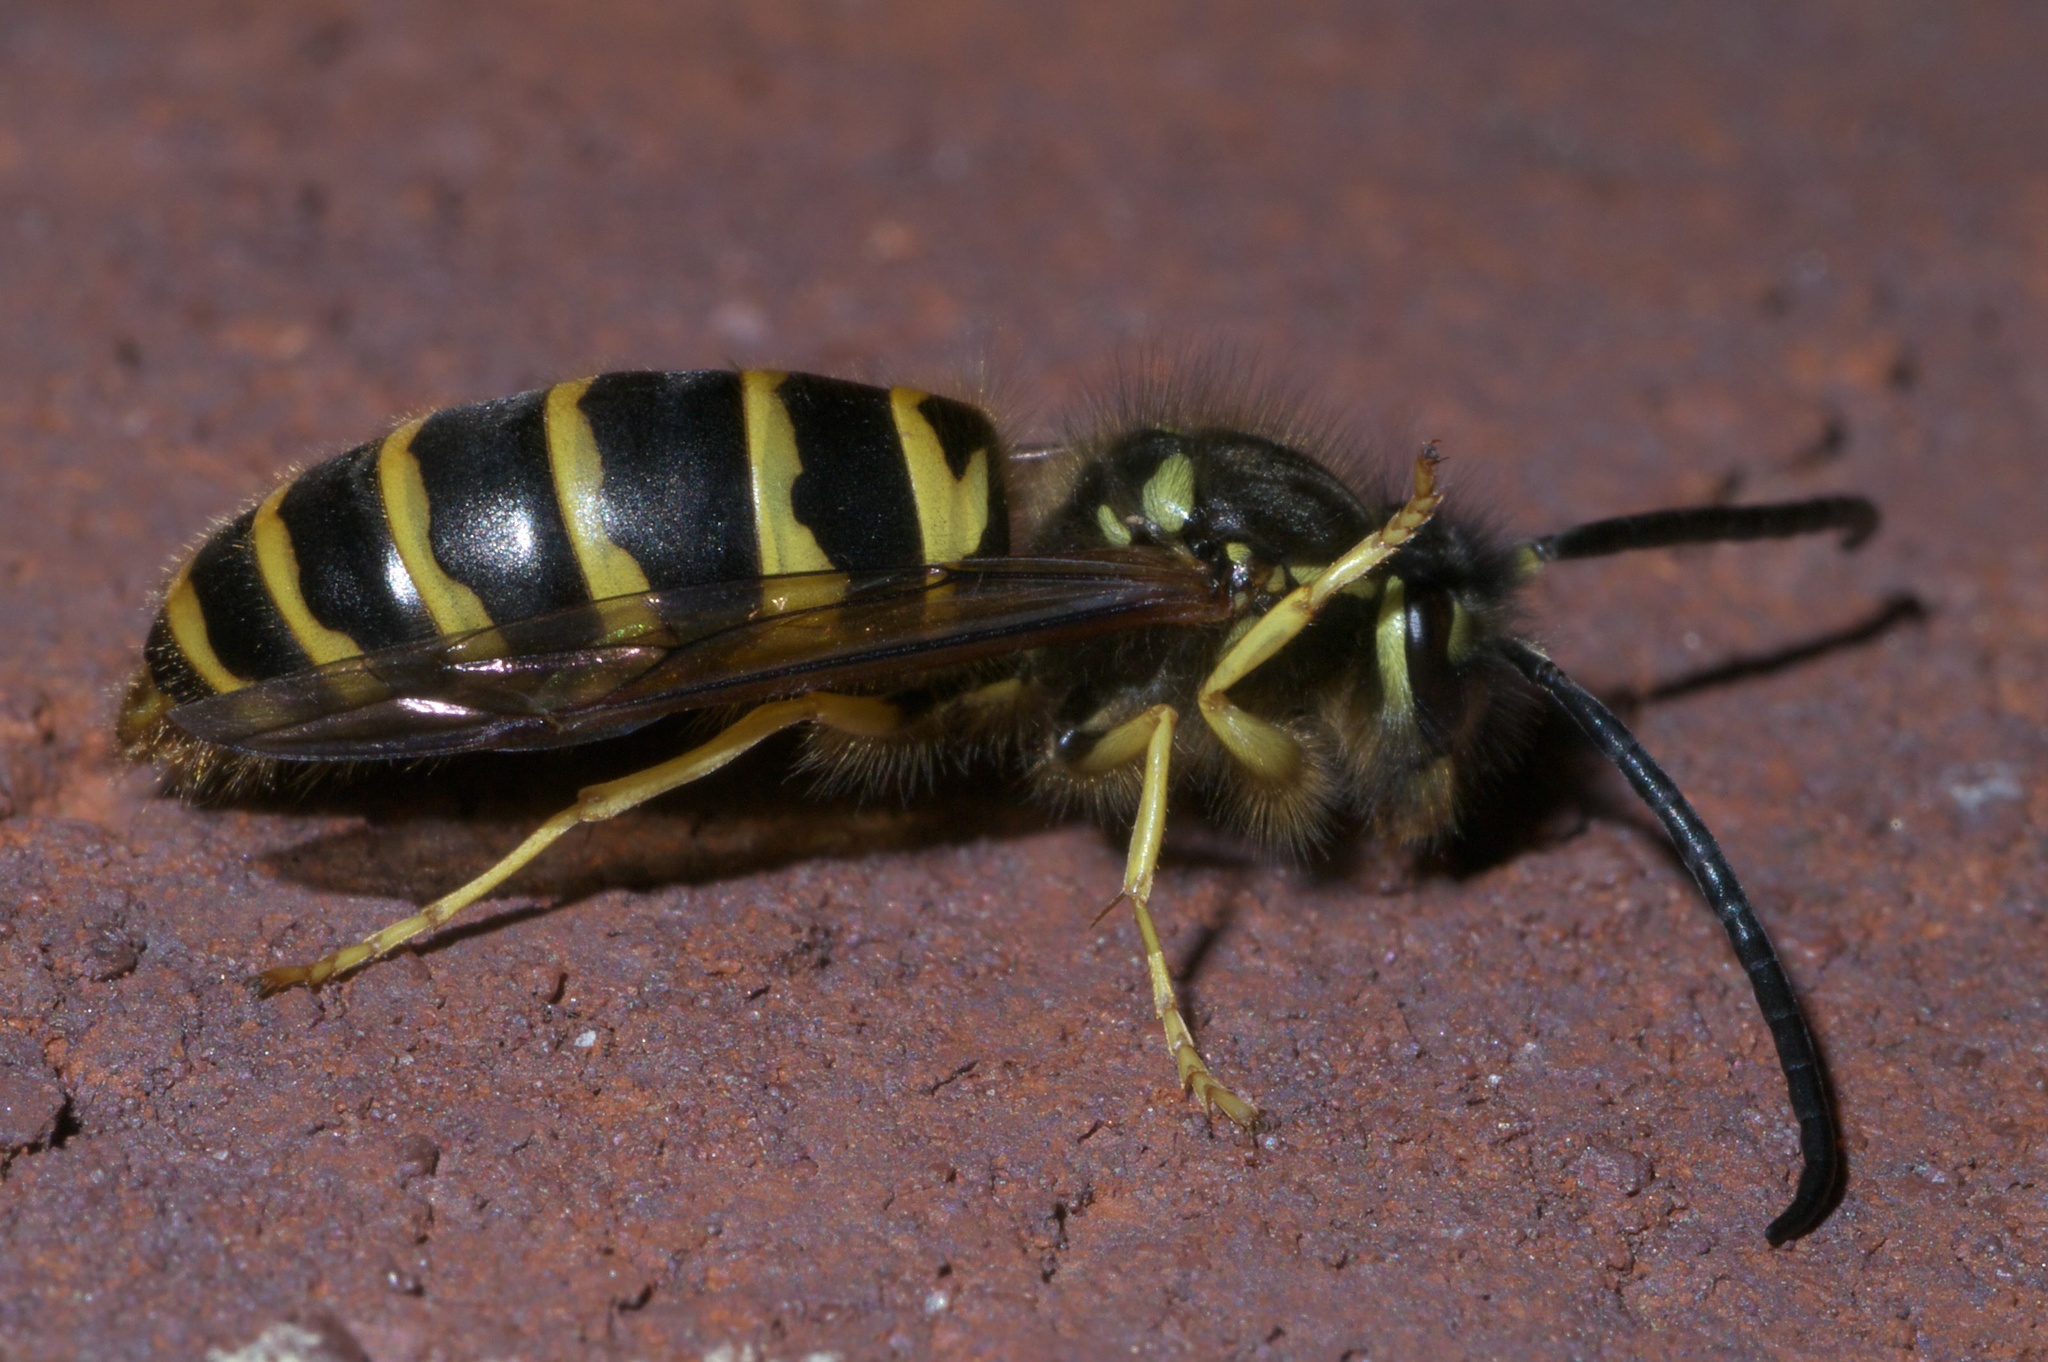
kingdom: Animalia
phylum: Arthropoda
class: Insecta
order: Hymenoptera
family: Vespidae
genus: Vespula
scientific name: Vespula maculifrons
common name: Eastern yellowjacket
